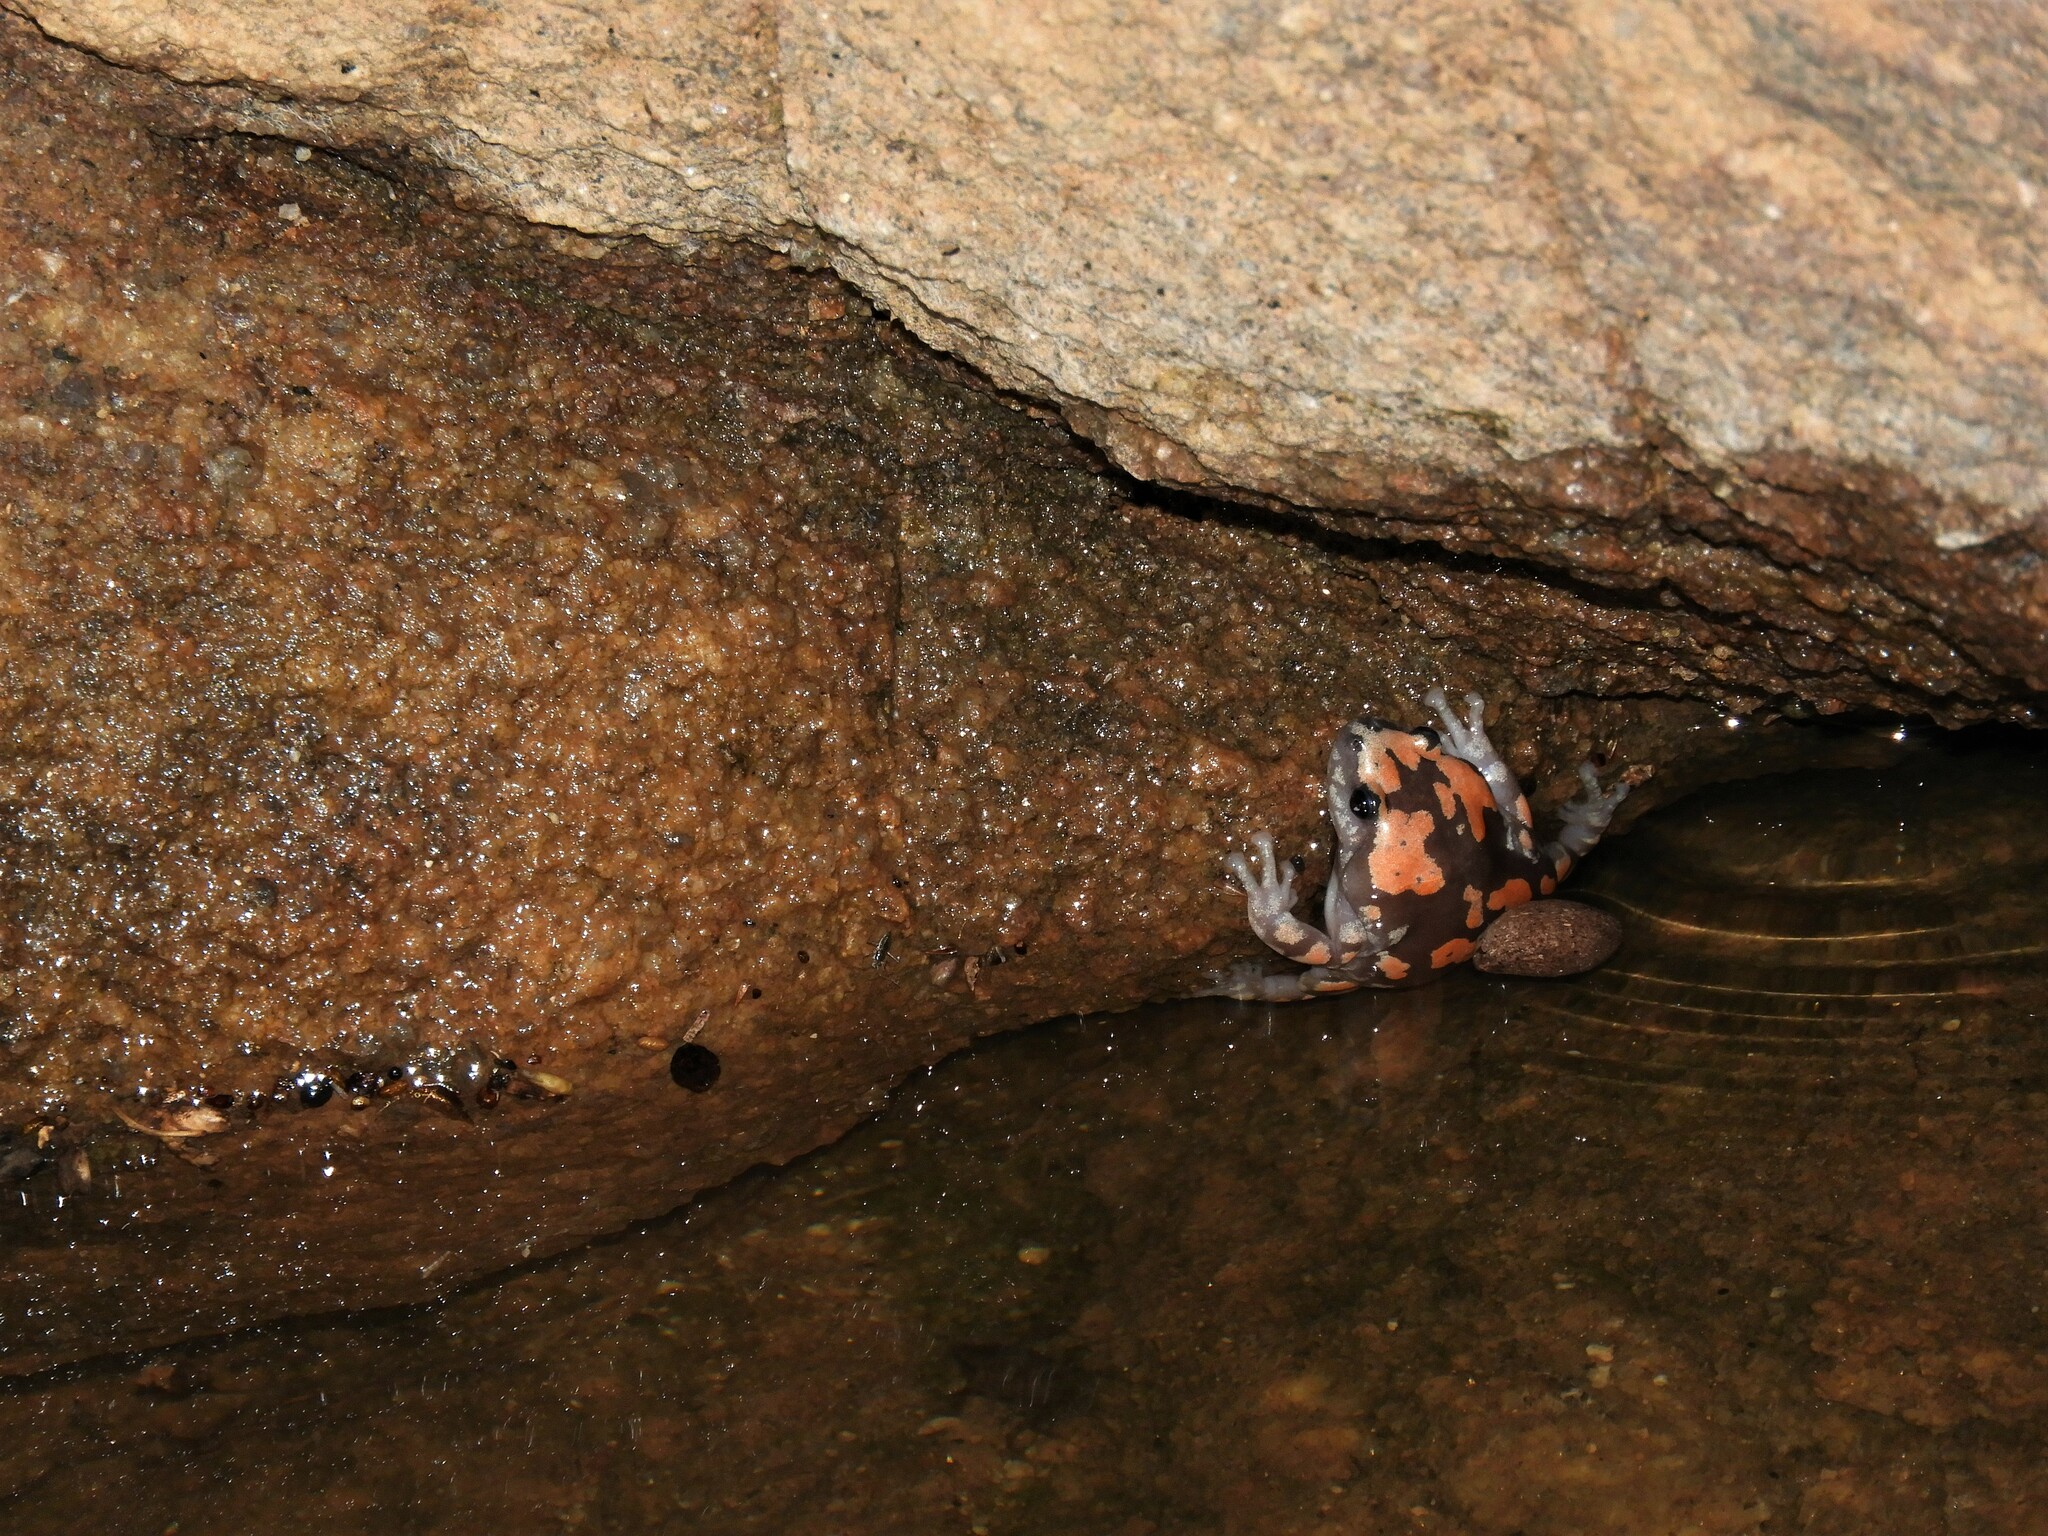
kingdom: Animalia
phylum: Chordata
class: Amphibia
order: Anura
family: Microhylidae
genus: Phrynomantis
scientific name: Phrynomantis annectens
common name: Marbled rubber frog
